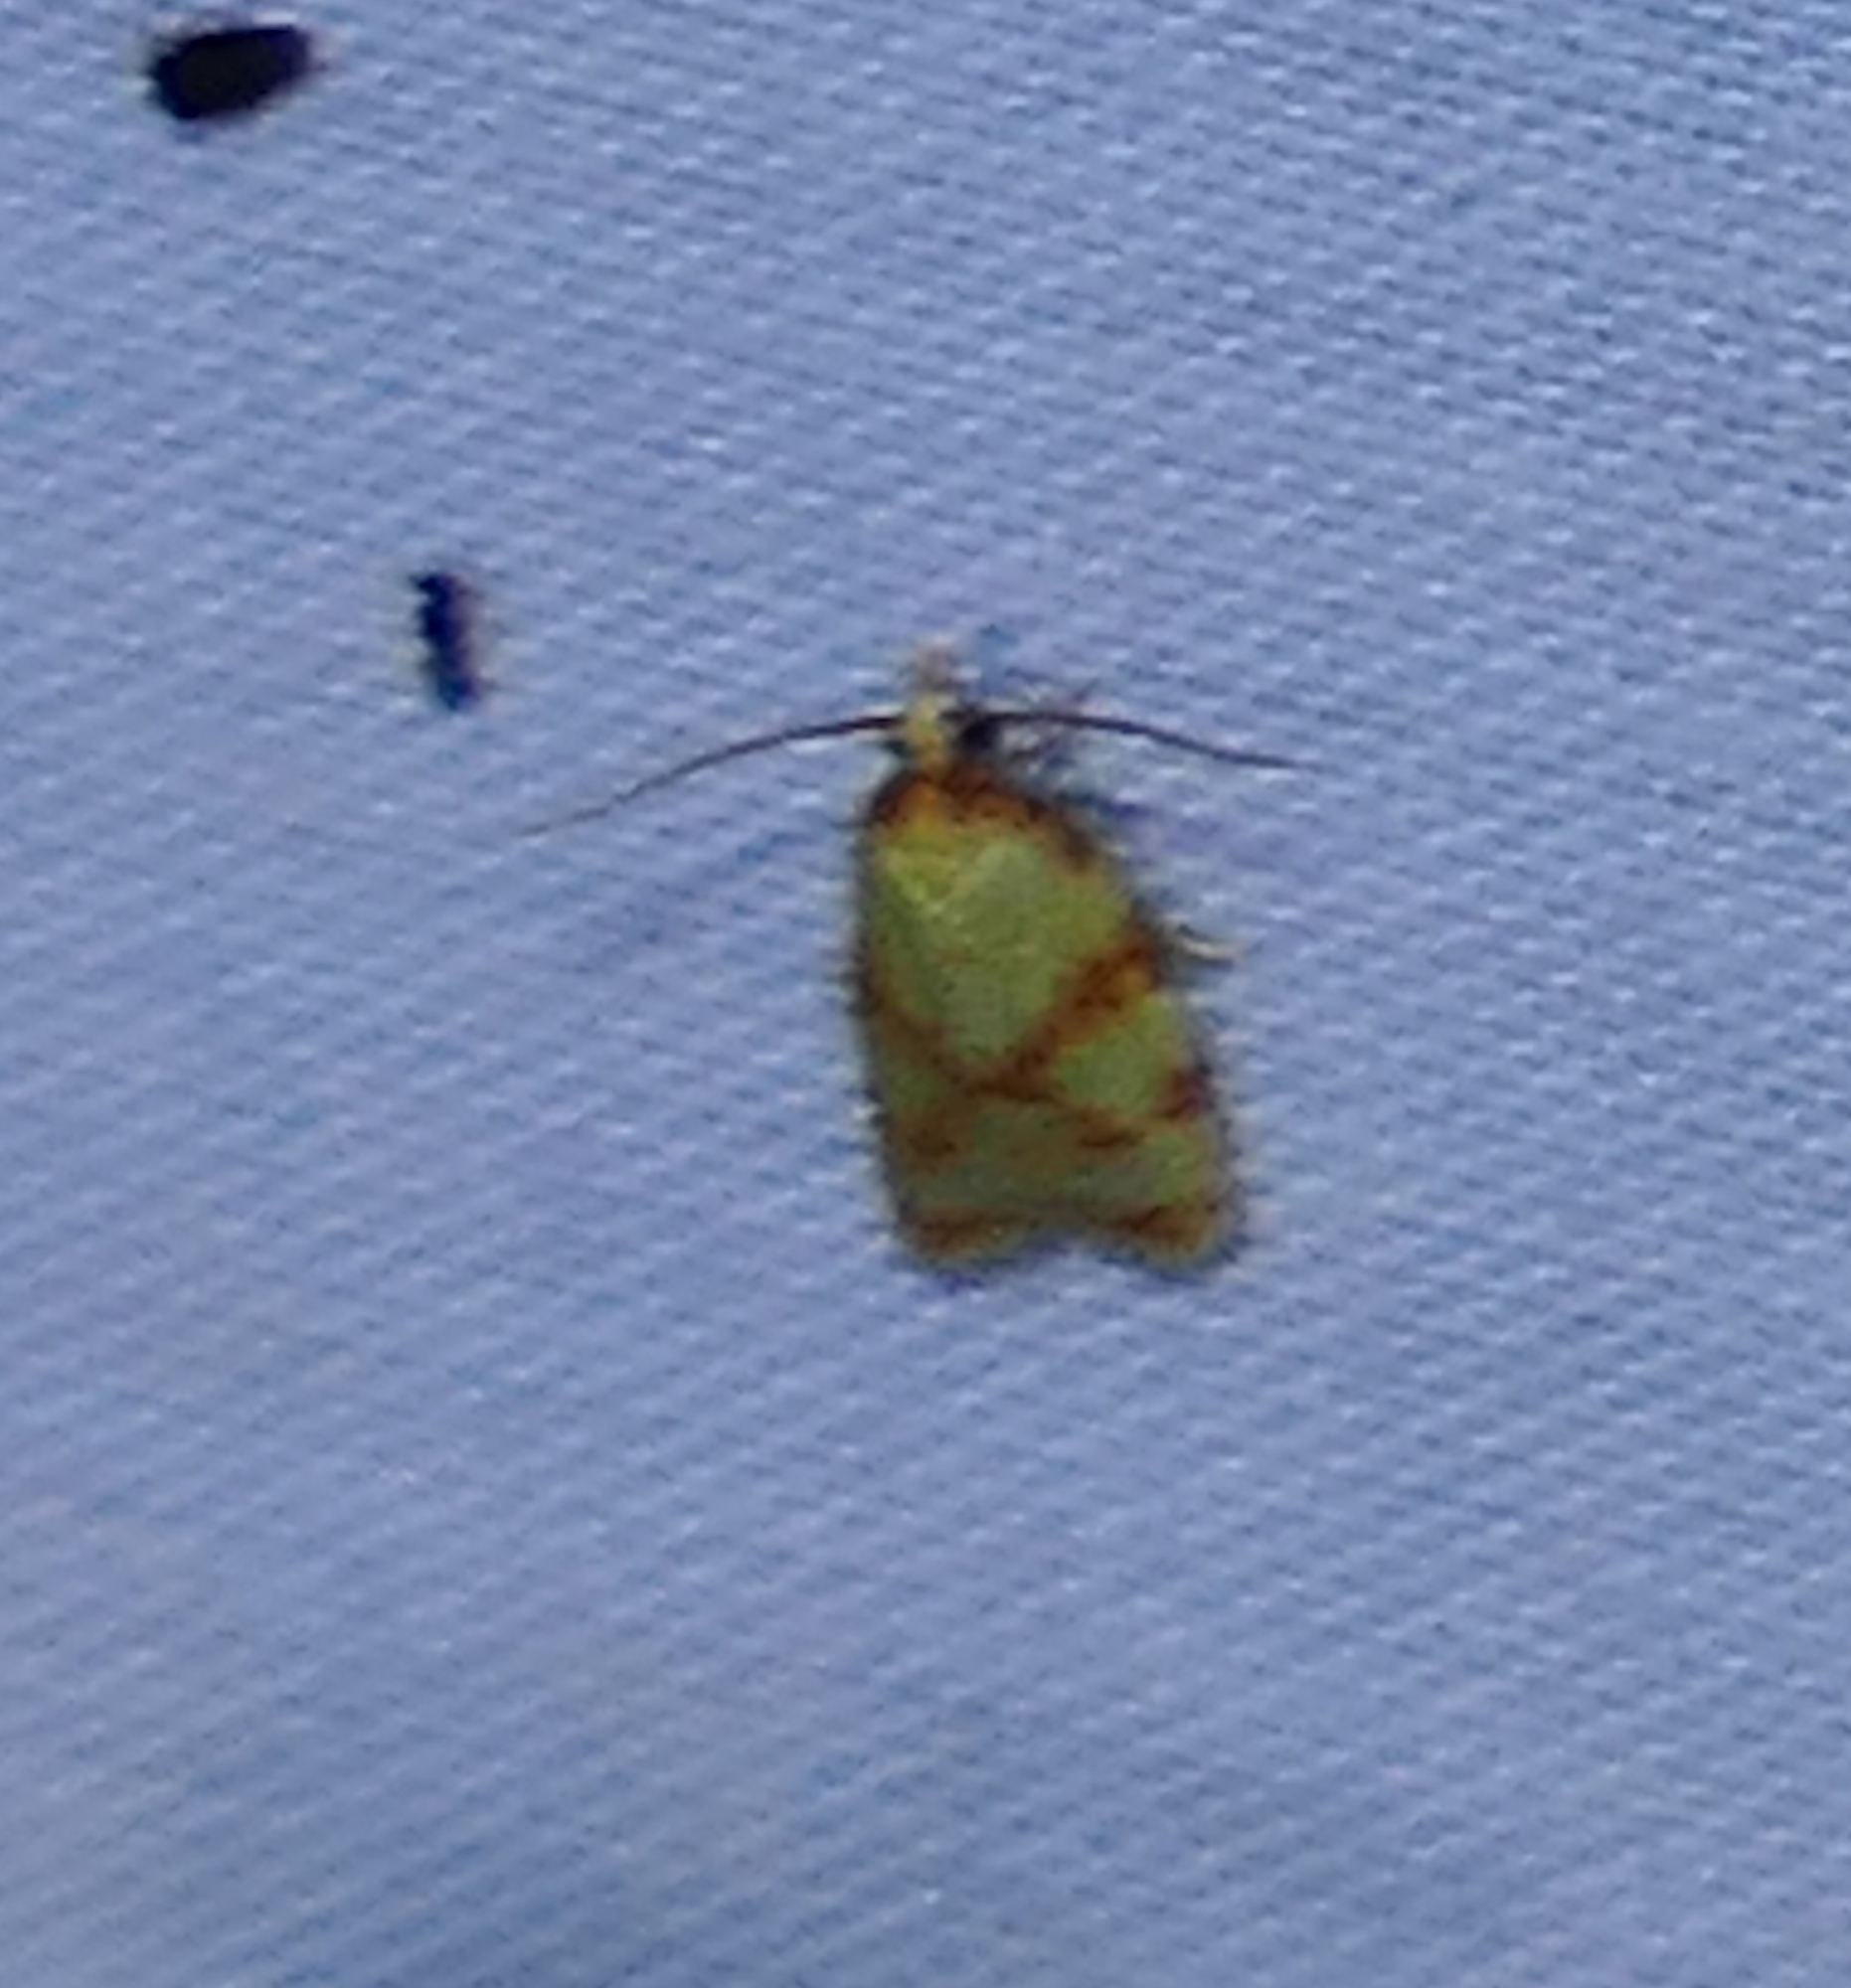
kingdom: Animalia
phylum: Arthropoda
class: Insecta
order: Lepidoptera
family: Tortricidae
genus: Sparganothis
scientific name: Sparganothis sulfureana
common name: Sparganothis fruitworm moth
